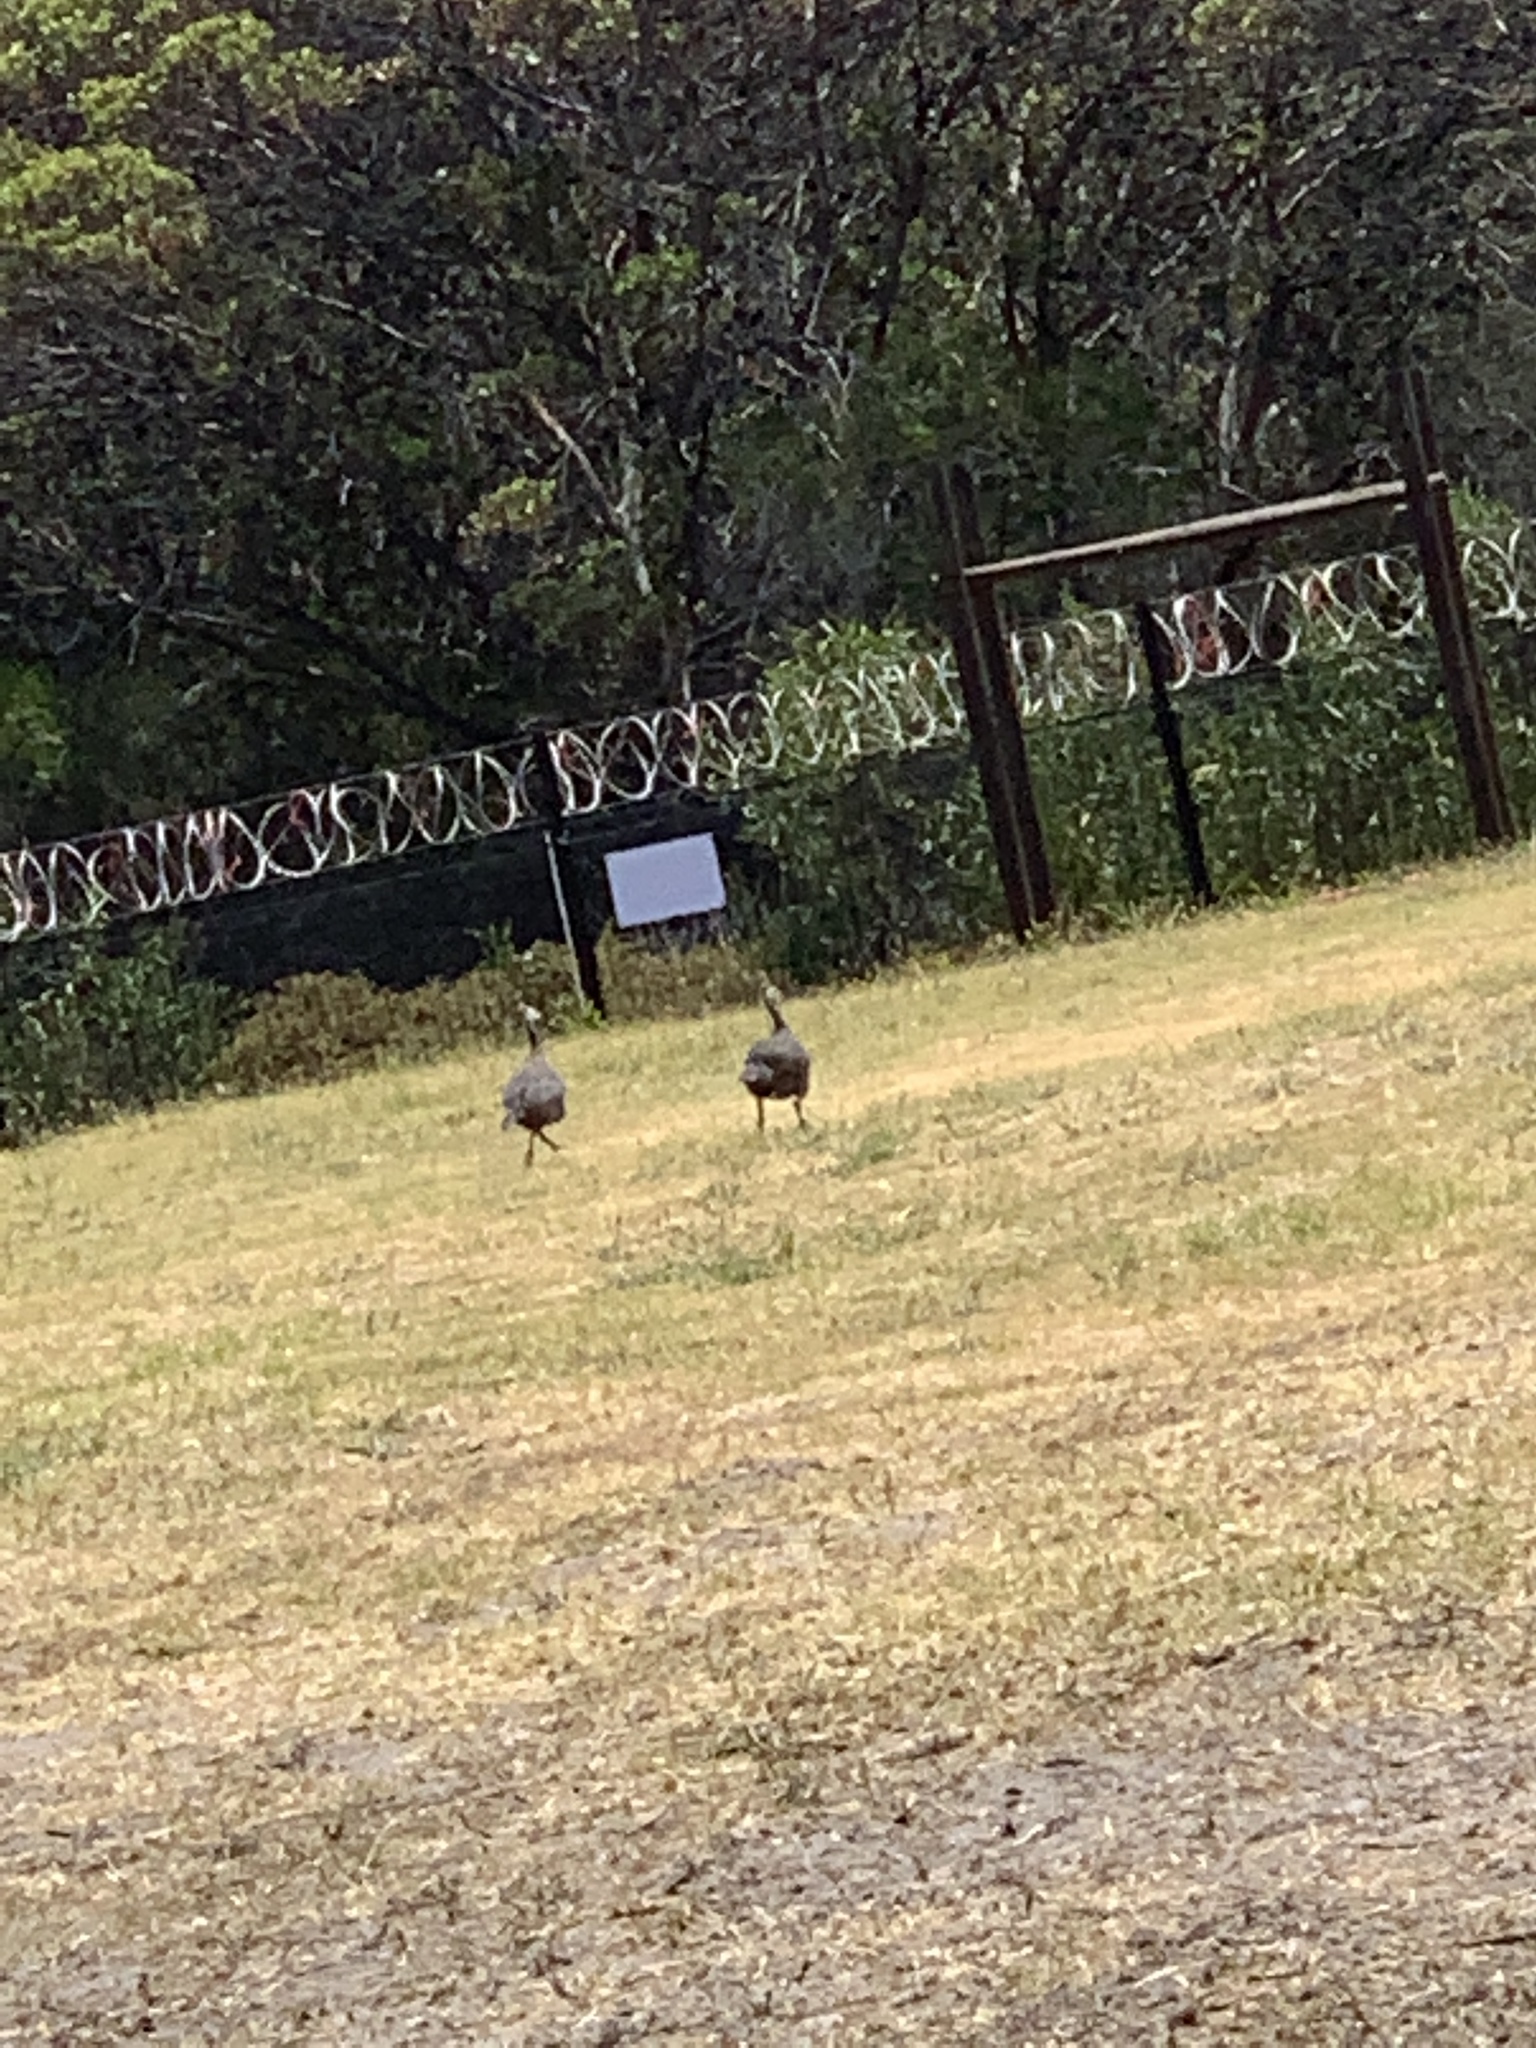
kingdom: Animalia
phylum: Chordata
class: Aves
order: Galliformes
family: Numididae
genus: Numida
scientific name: Numida meleagris
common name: Helmeted guineafowl
